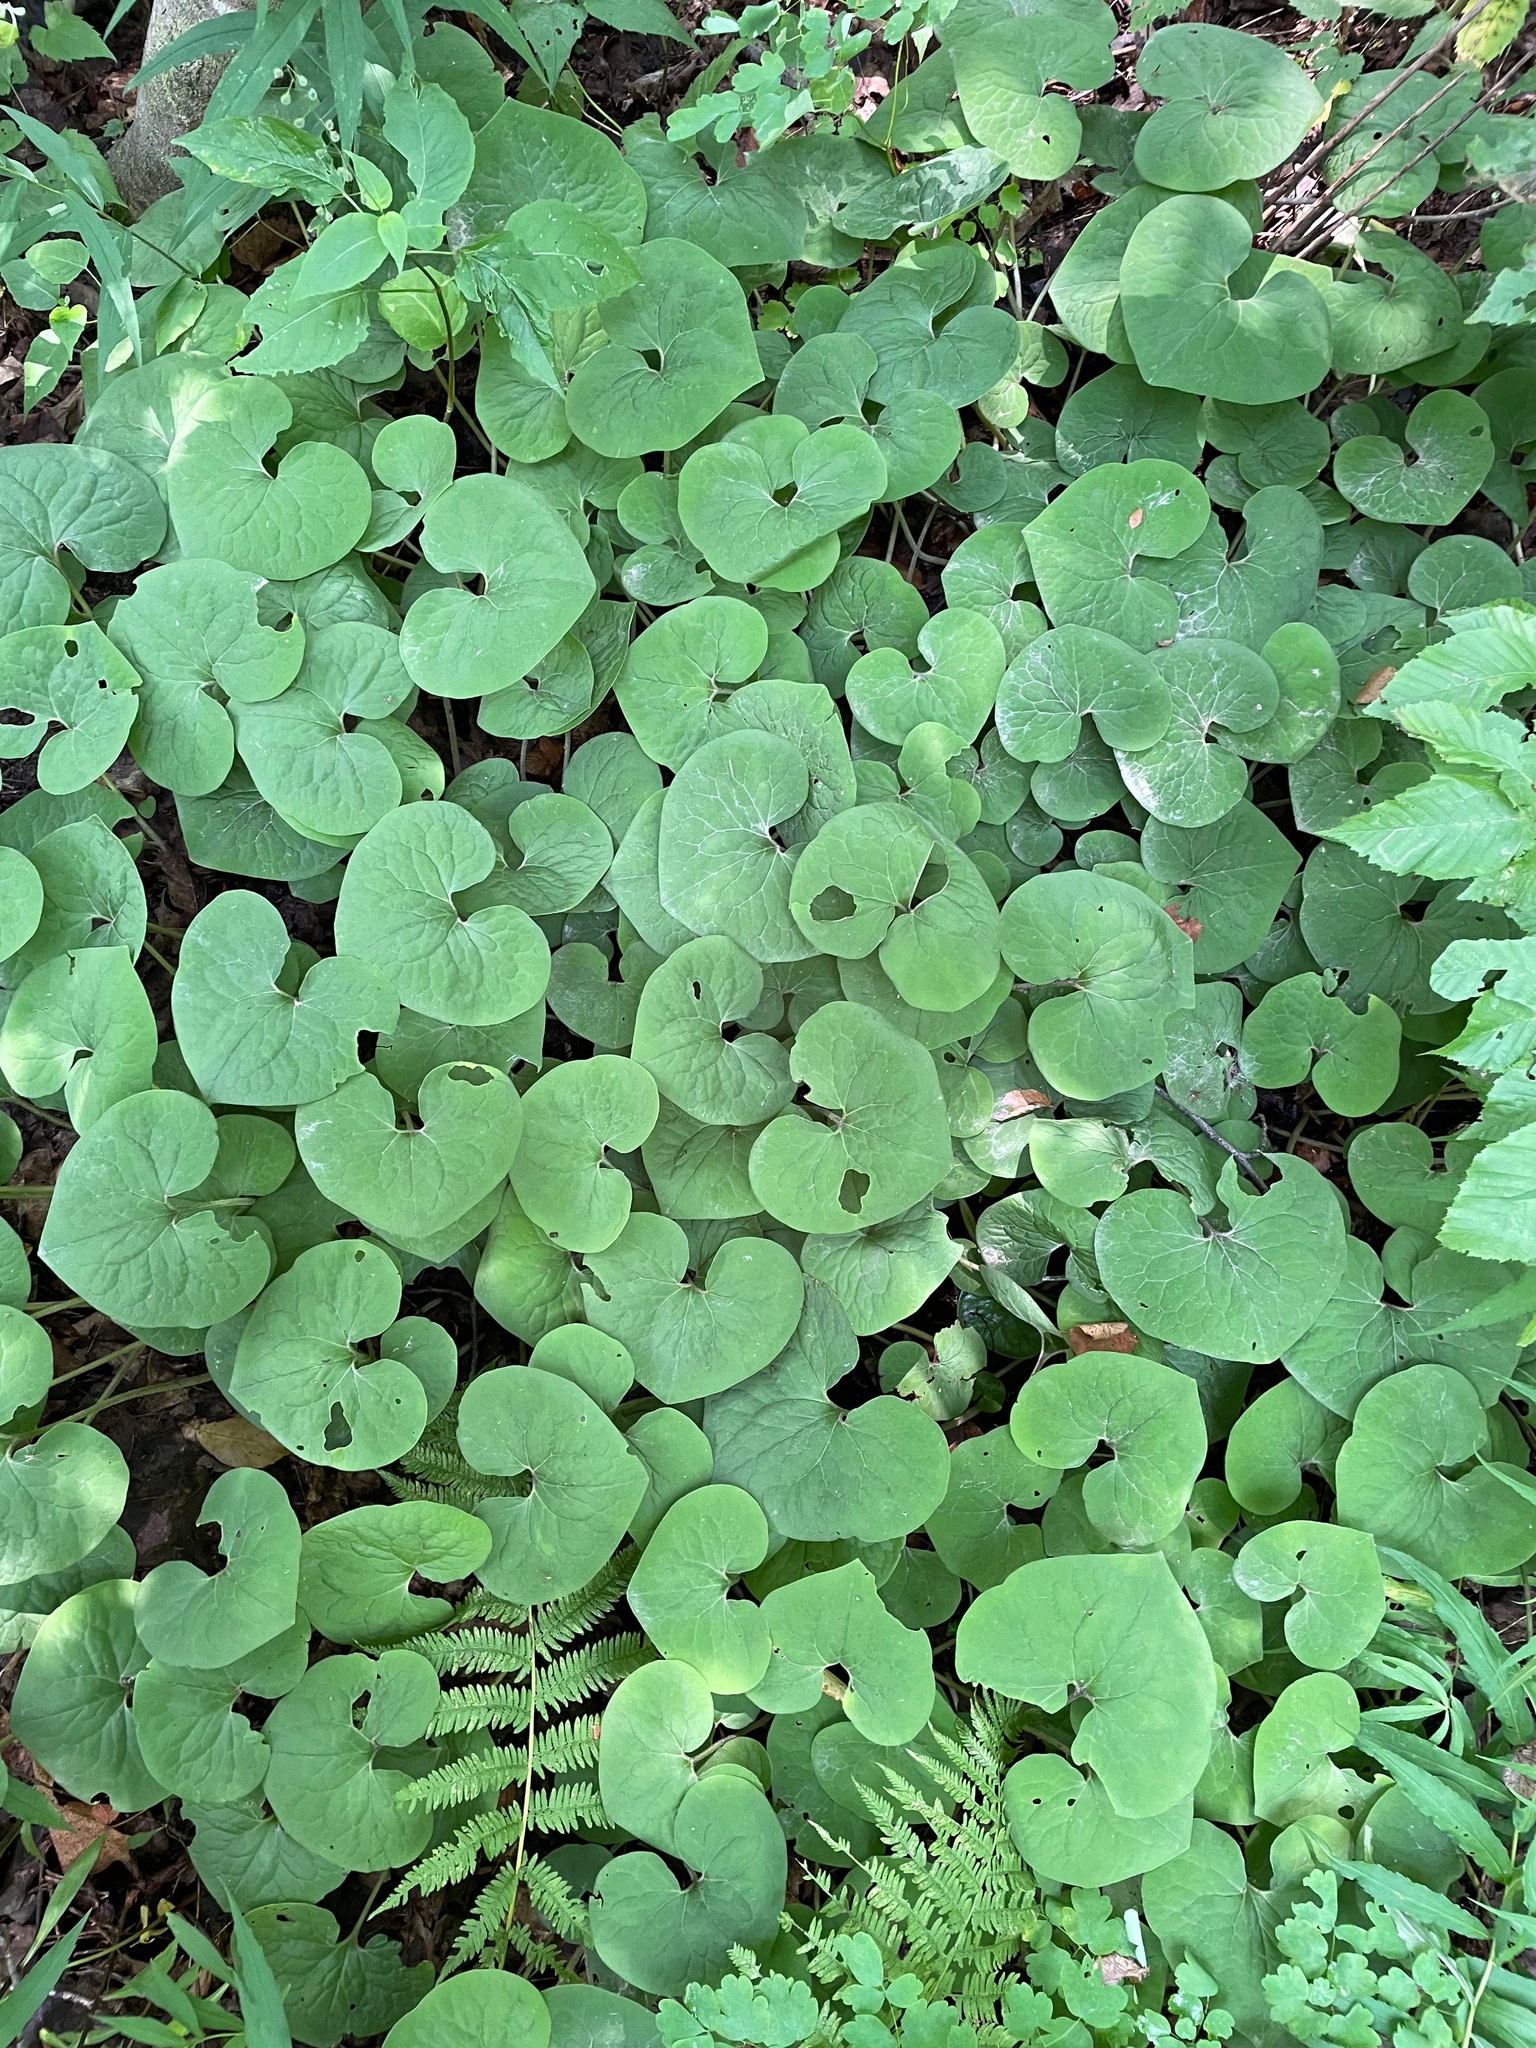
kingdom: Plantae
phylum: Tracheophyta
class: Magnoliopsida
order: Piperales
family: Aristolochiaceae
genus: Asarum
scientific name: Asarum canadense
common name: Wild ginger
